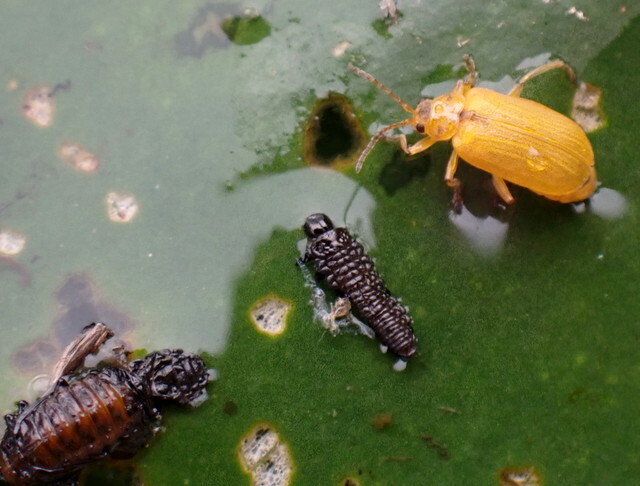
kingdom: Animalia
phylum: Arthropoda
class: Insecta
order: Coleoptera
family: Chrysomelidae
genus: Galerucella
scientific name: Galerucella nymphaeae
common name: Leaf beetle
